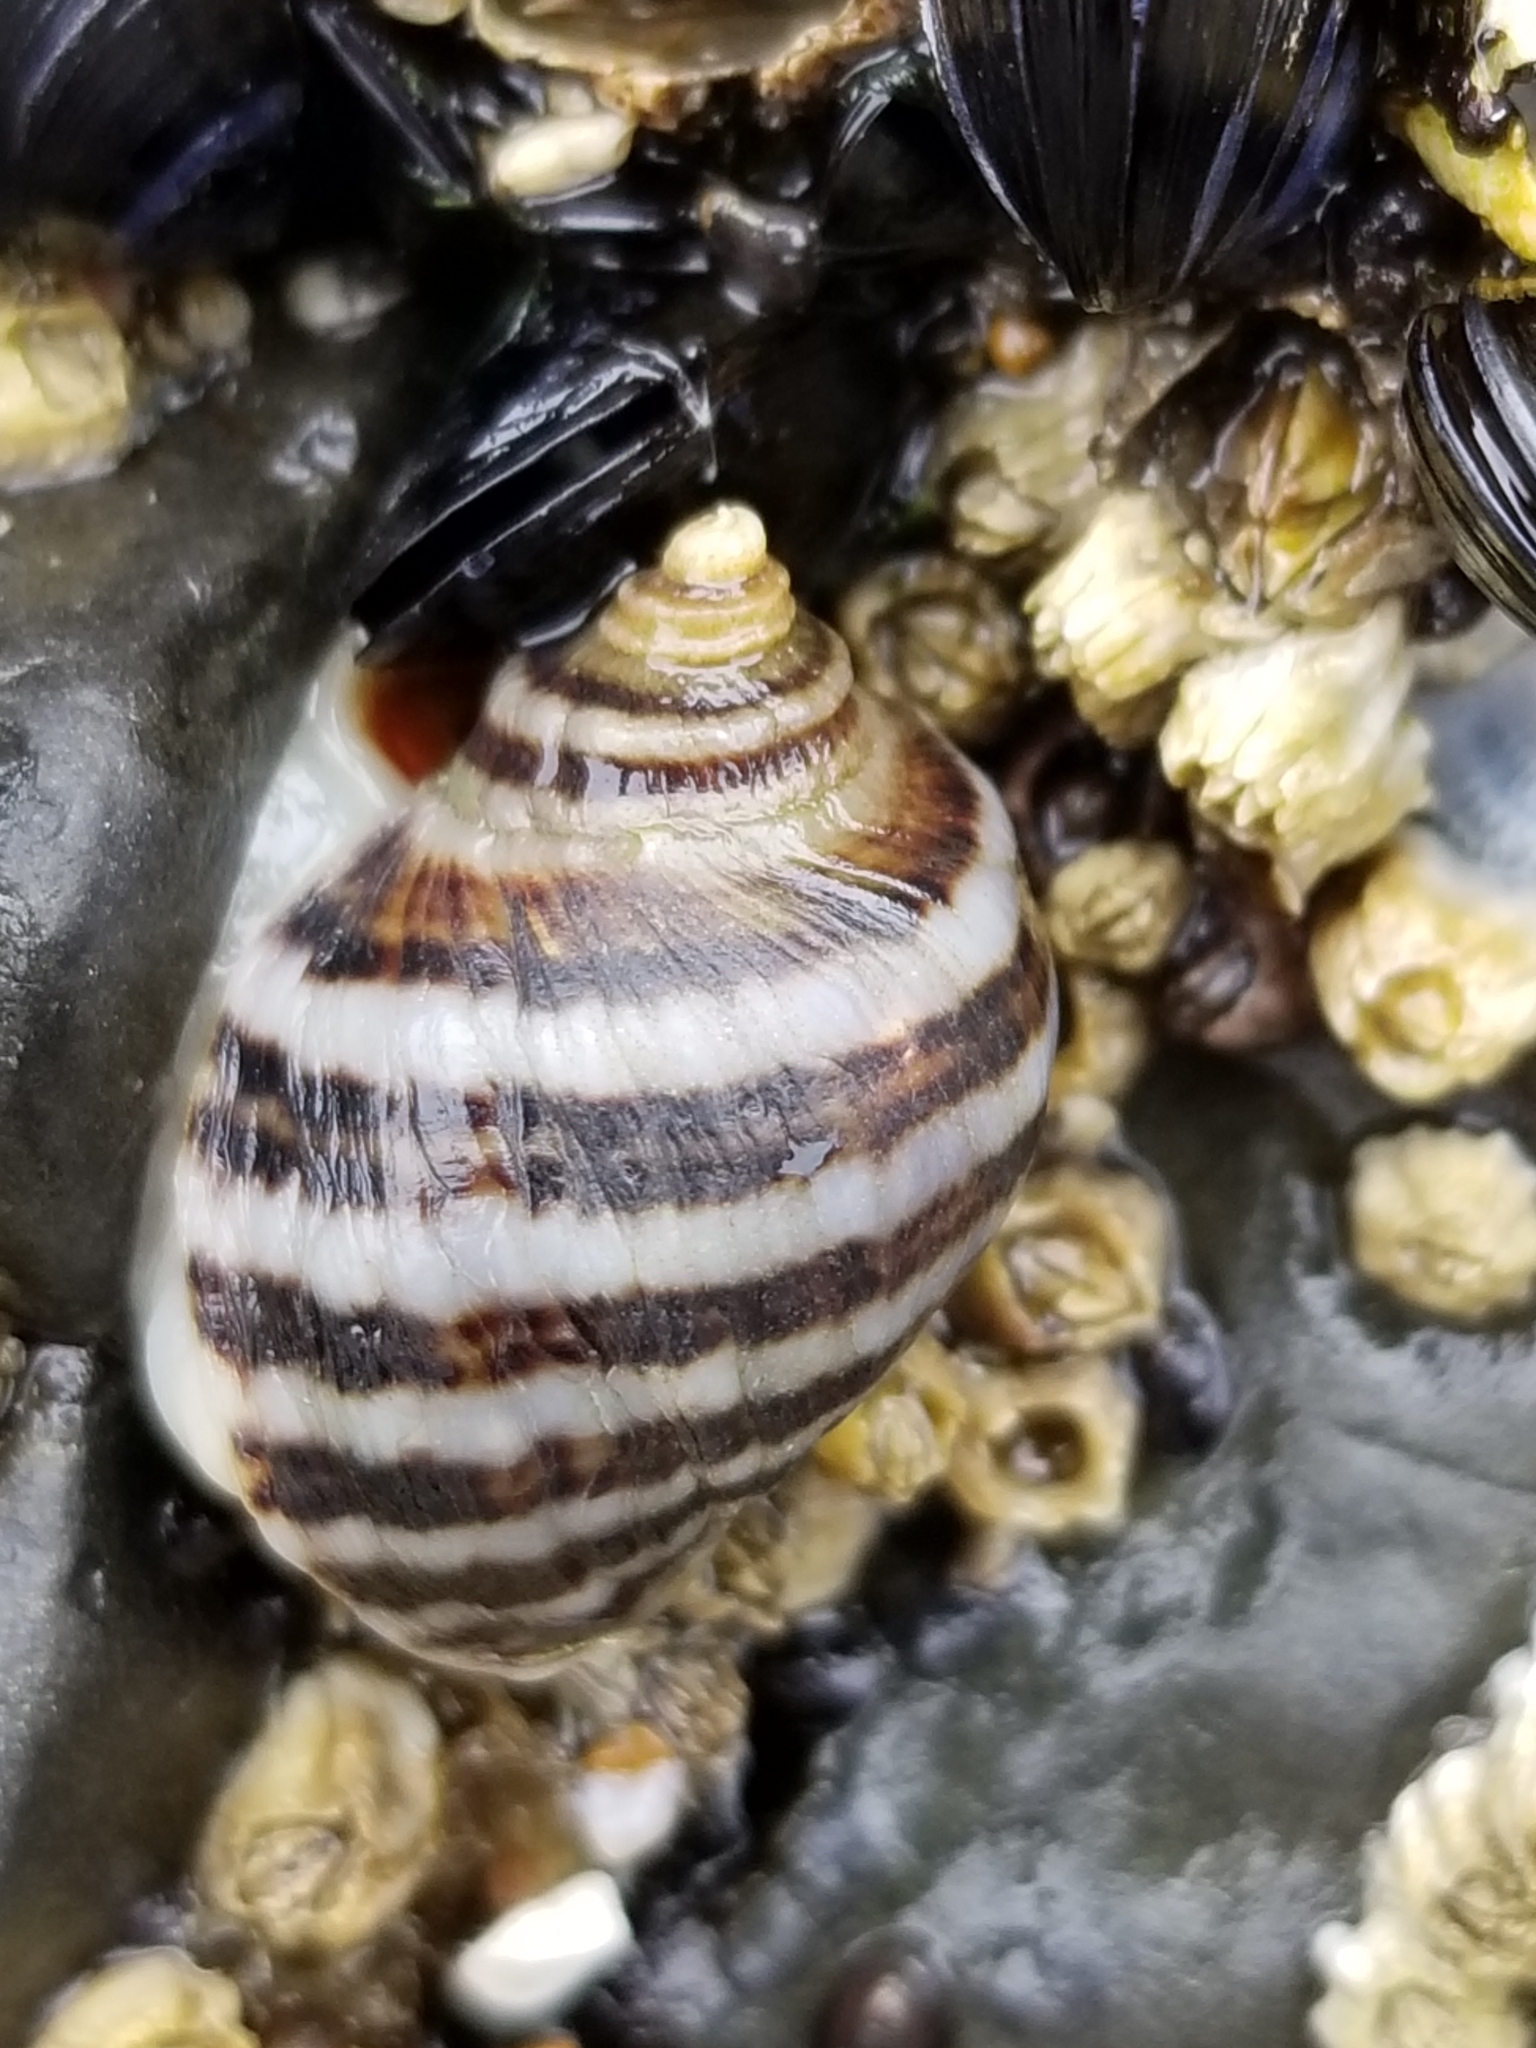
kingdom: Animalia
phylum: Mollusca
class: Gastropoda
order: Neogastropoda
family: Muricidae
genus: Nucella
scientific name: Nucella ostrina
